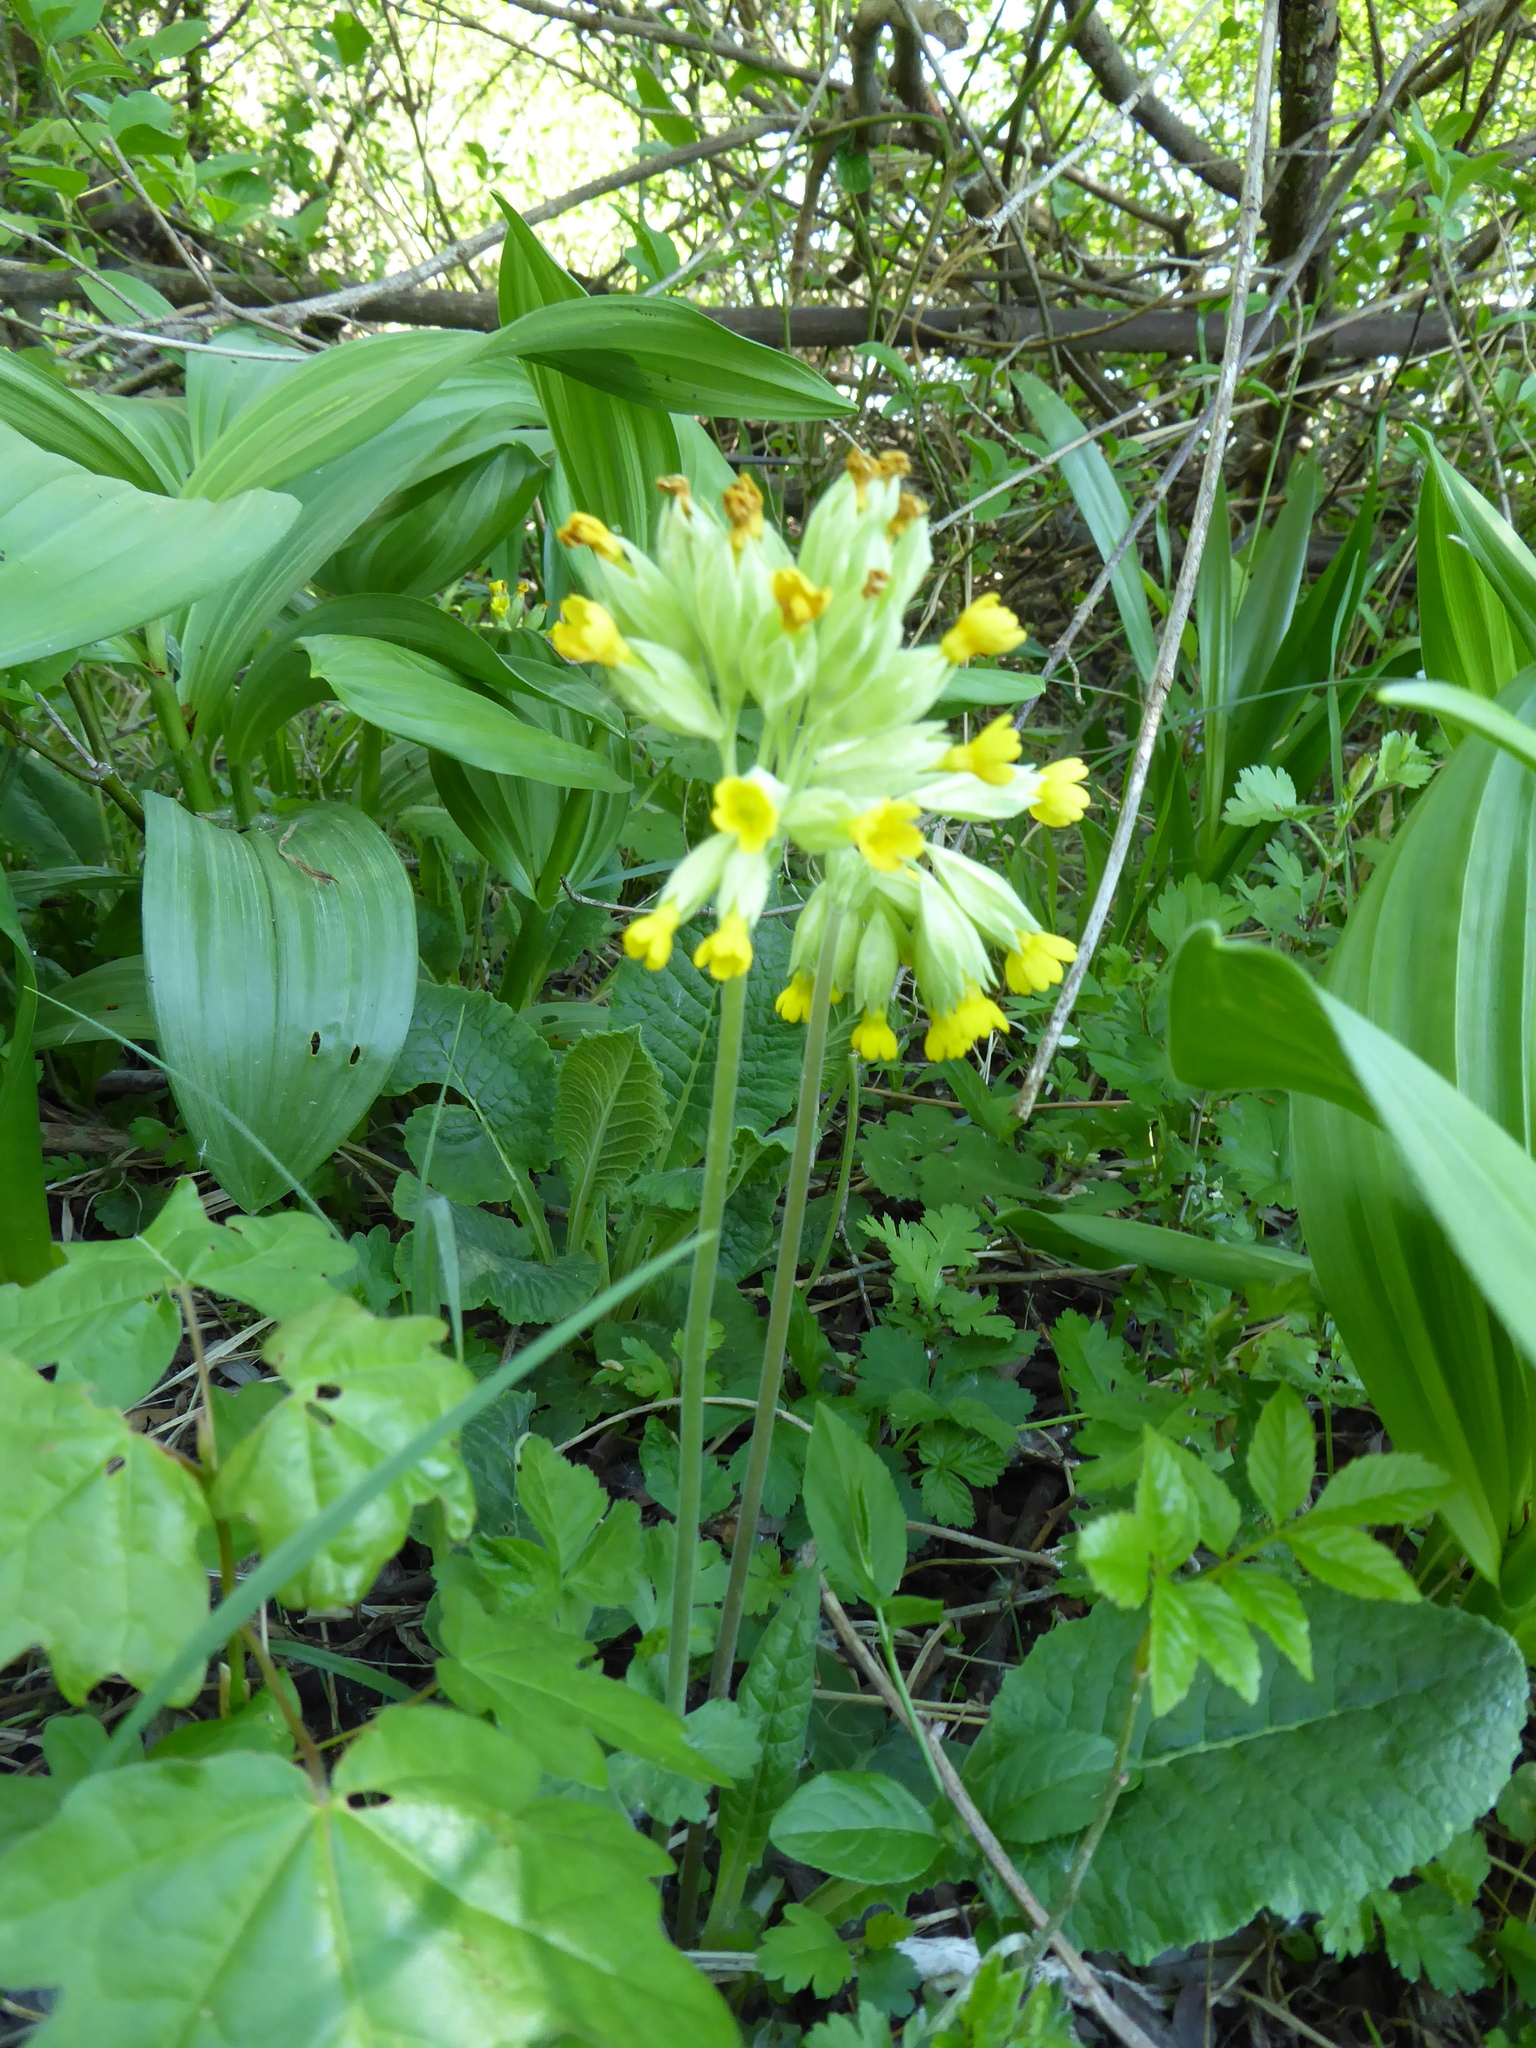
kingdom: Plantae
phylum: Tracheophyta
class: Magnoliopsida
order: Ericales
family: Primulaceae
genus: Primula
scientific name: Primula veris
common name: Cowslip
